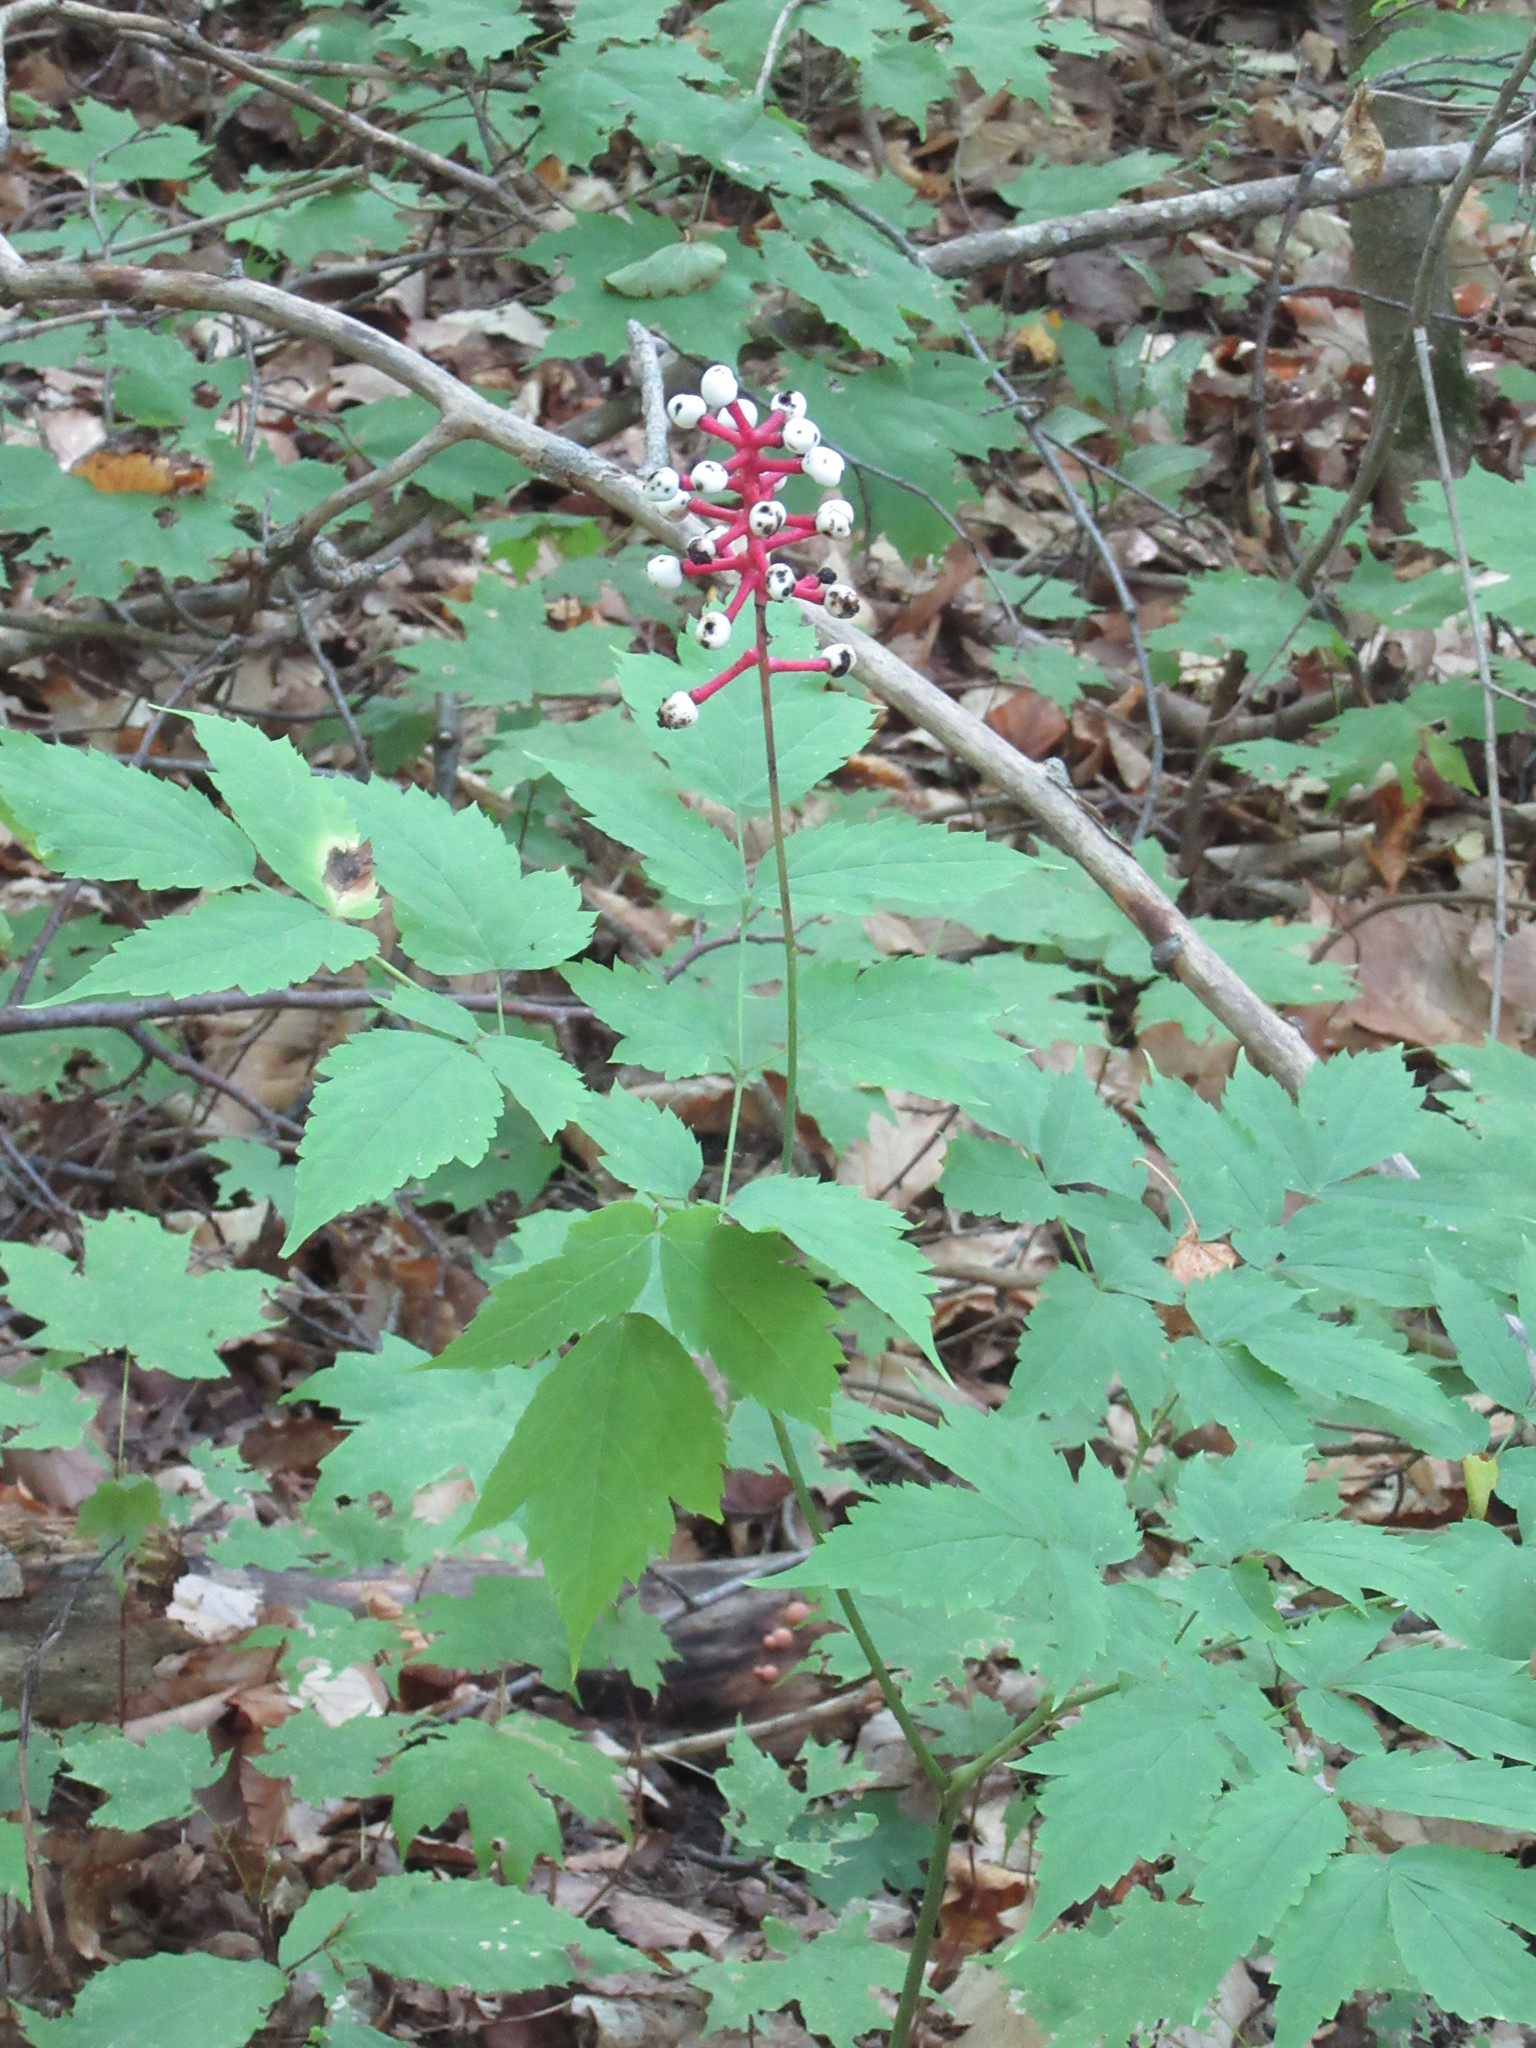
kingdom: Plantae
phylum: Tracheophyta
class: Magnoliopsida
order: Ranunculales
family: Ranunculaceae
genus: Actaea
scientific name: Actaea pachypoda
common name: Doll's-eyes
